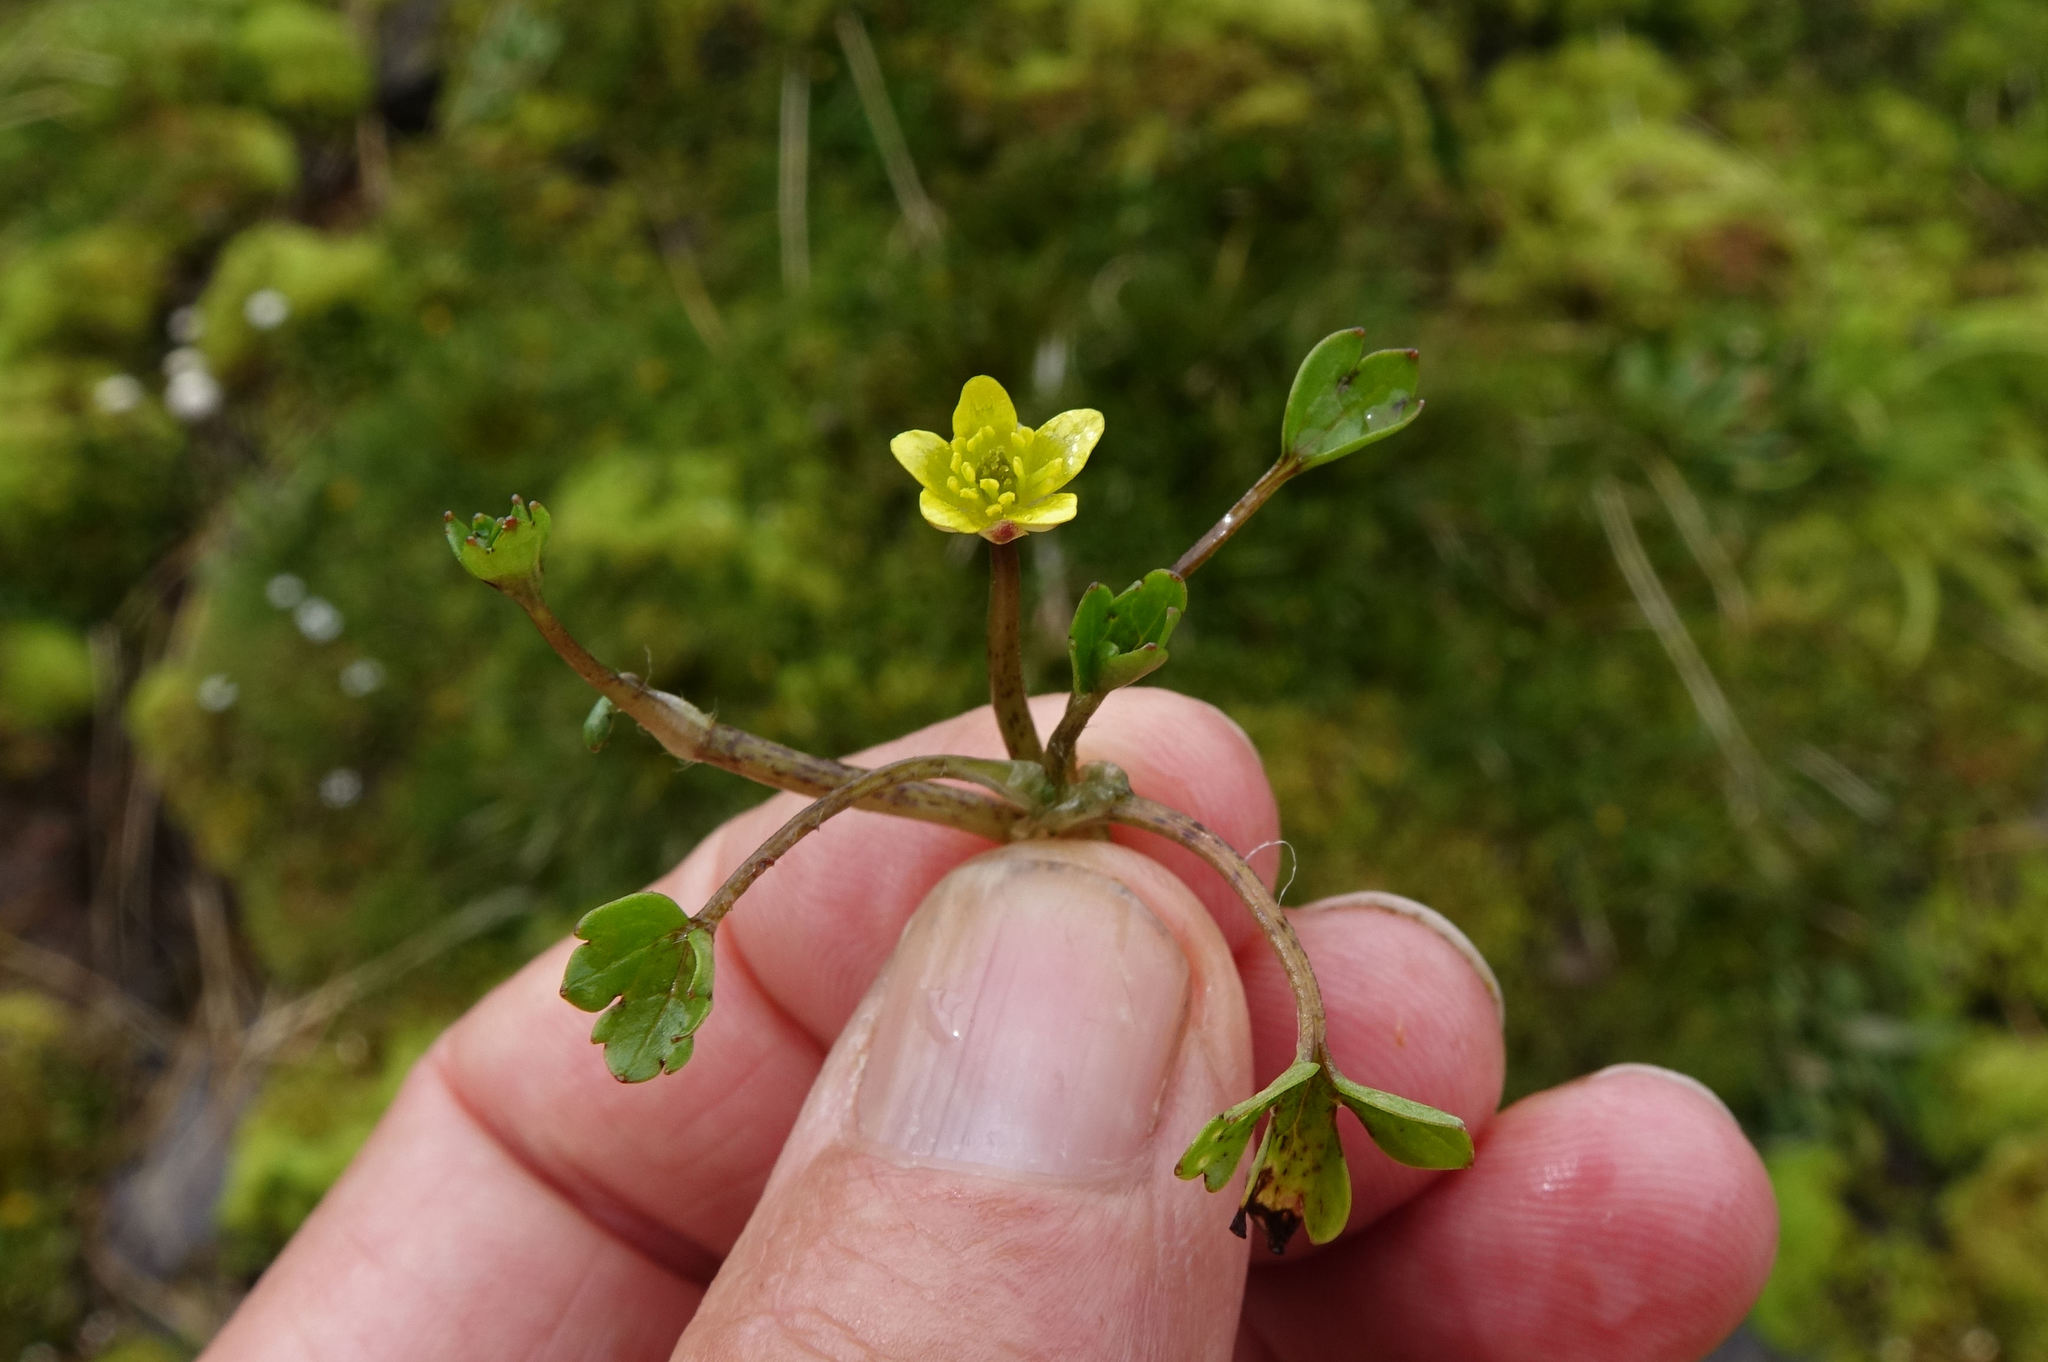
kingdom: Plantae
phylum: Tracheophyta
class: Magnoliopsida
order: Ranunculales
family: Ranunculaceae
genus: Ranunculus
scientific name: Ranunculus maculatus
